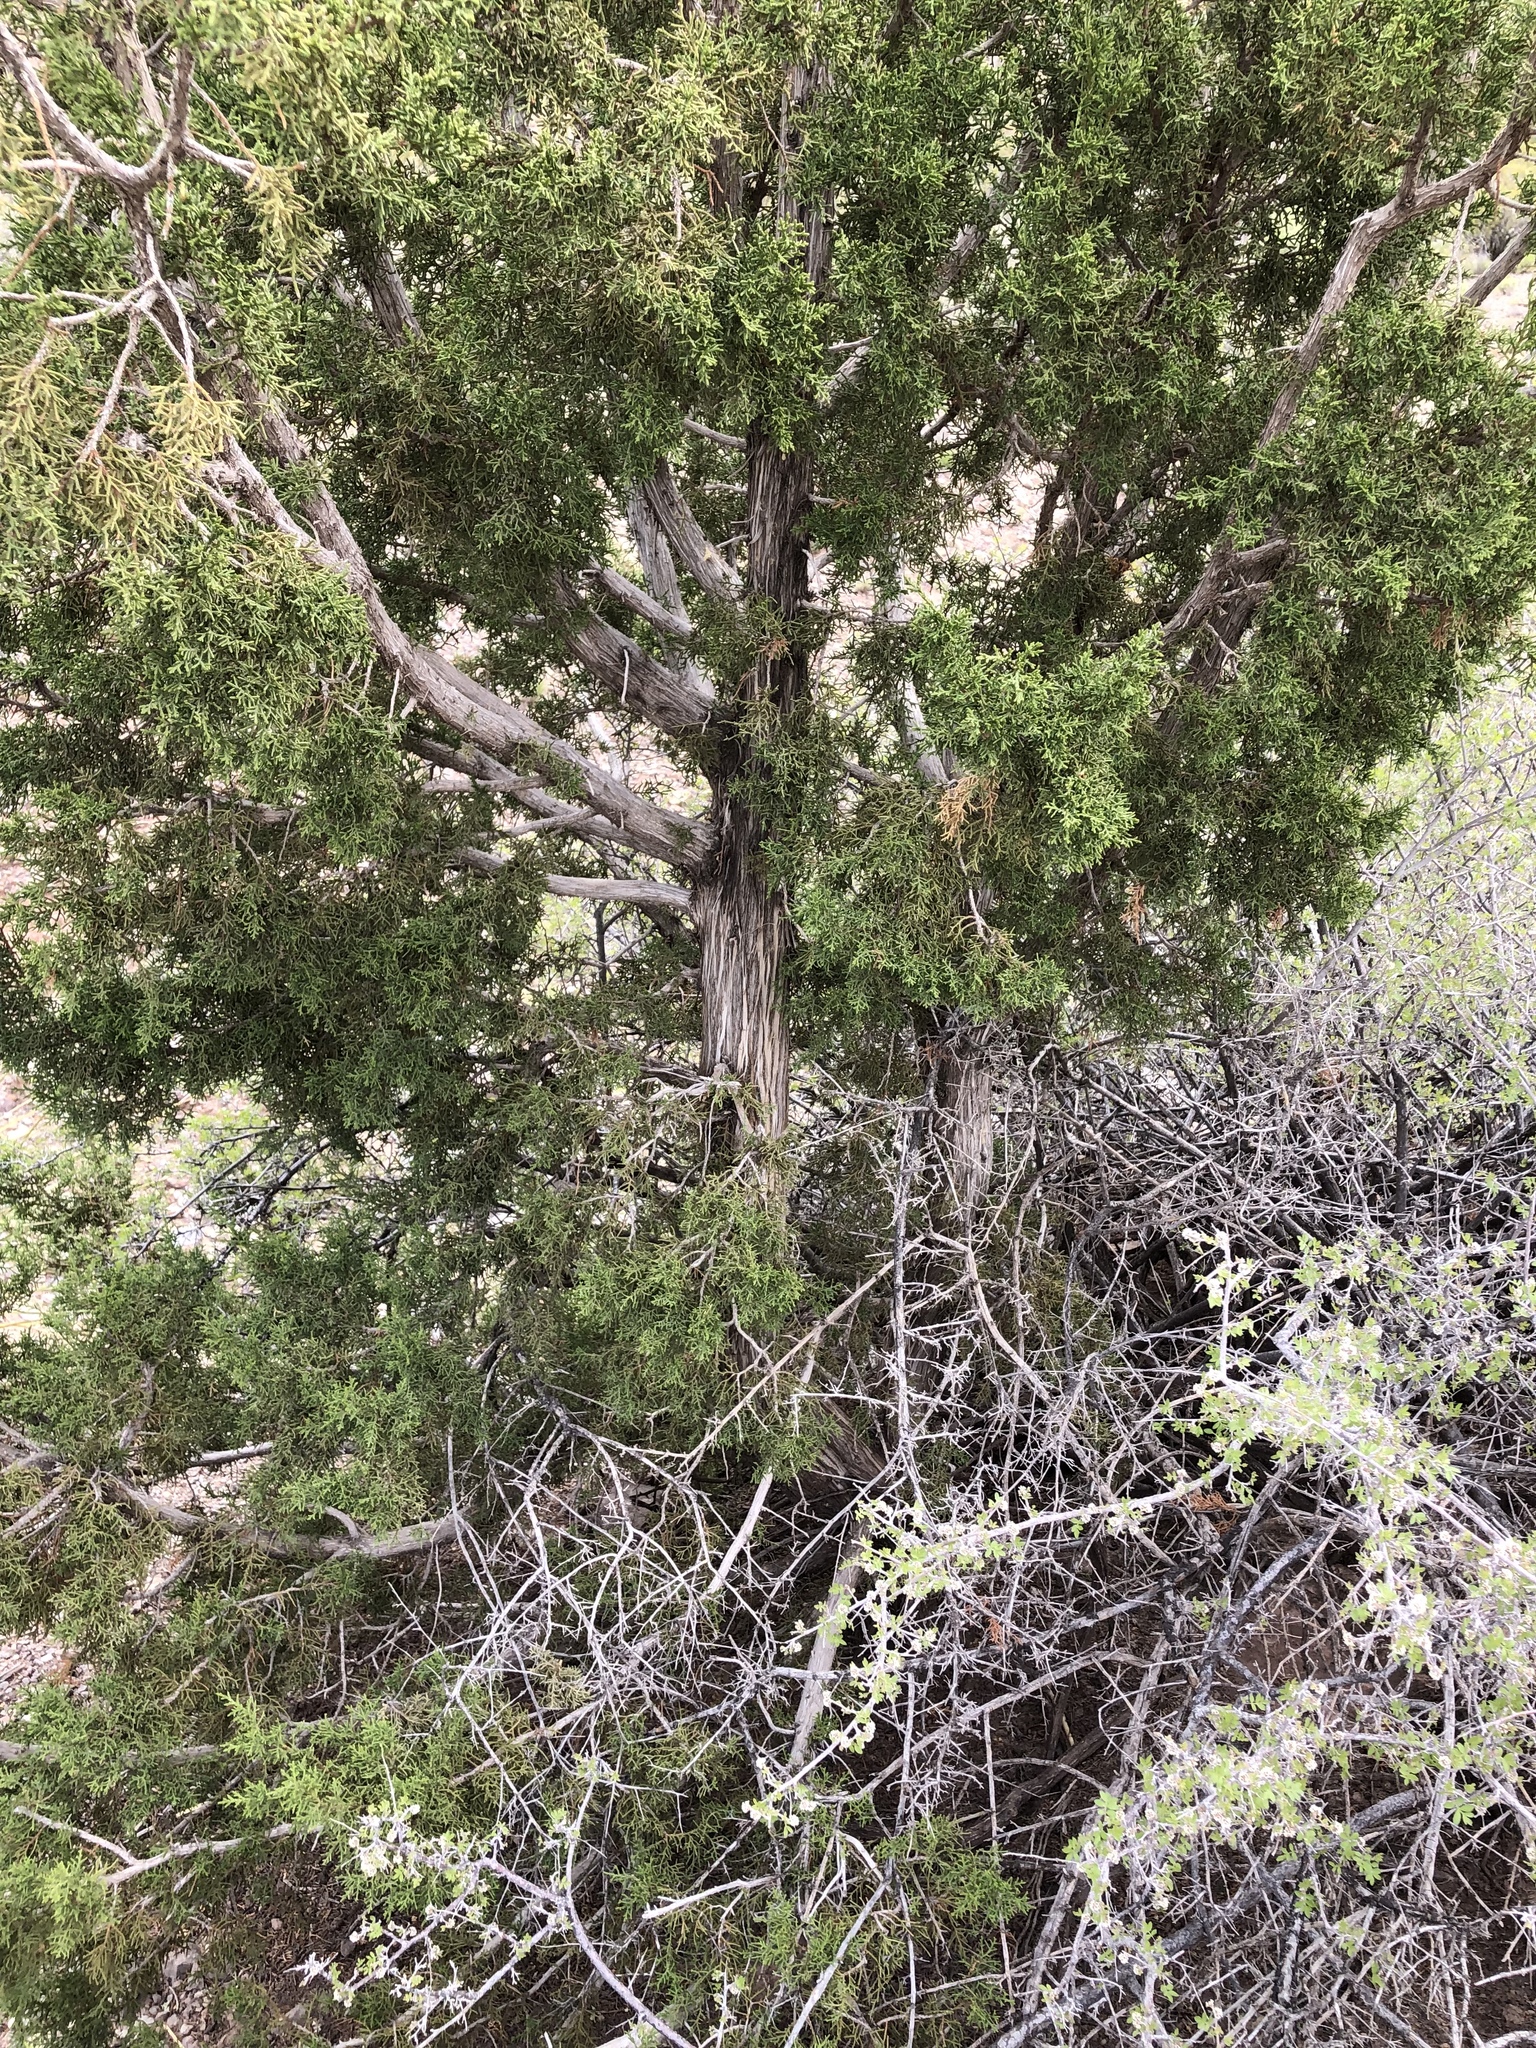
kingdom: Plantae
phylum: Tracheophyta
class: Pinopsida
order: Pinales
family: Cupressaceae
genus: Juniperus
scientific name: Juniperus monosperma
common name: One-seed juniper
